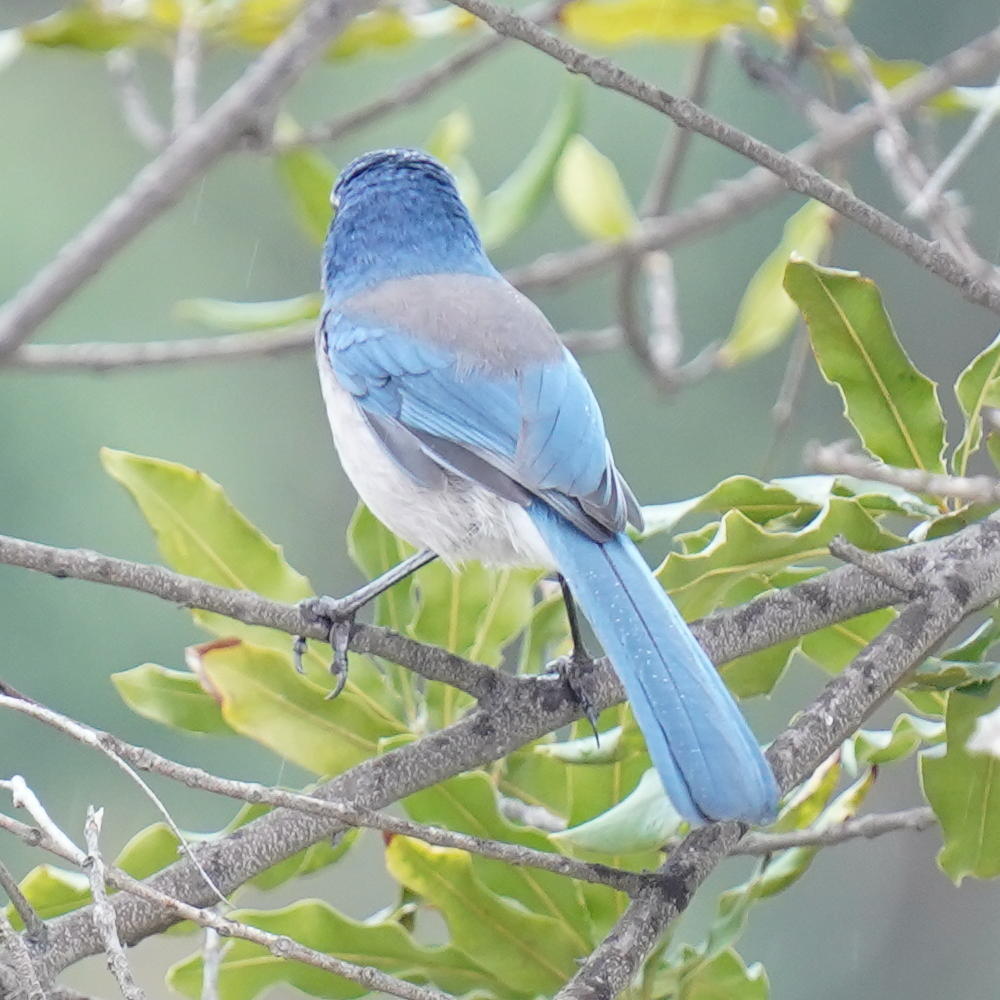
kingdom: Animalia
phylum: Chordata
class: Aves
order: Passeriformes
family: Corvidae
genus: Aphelocoma
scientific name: Aphelocoma californica
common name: California scrub-jay
